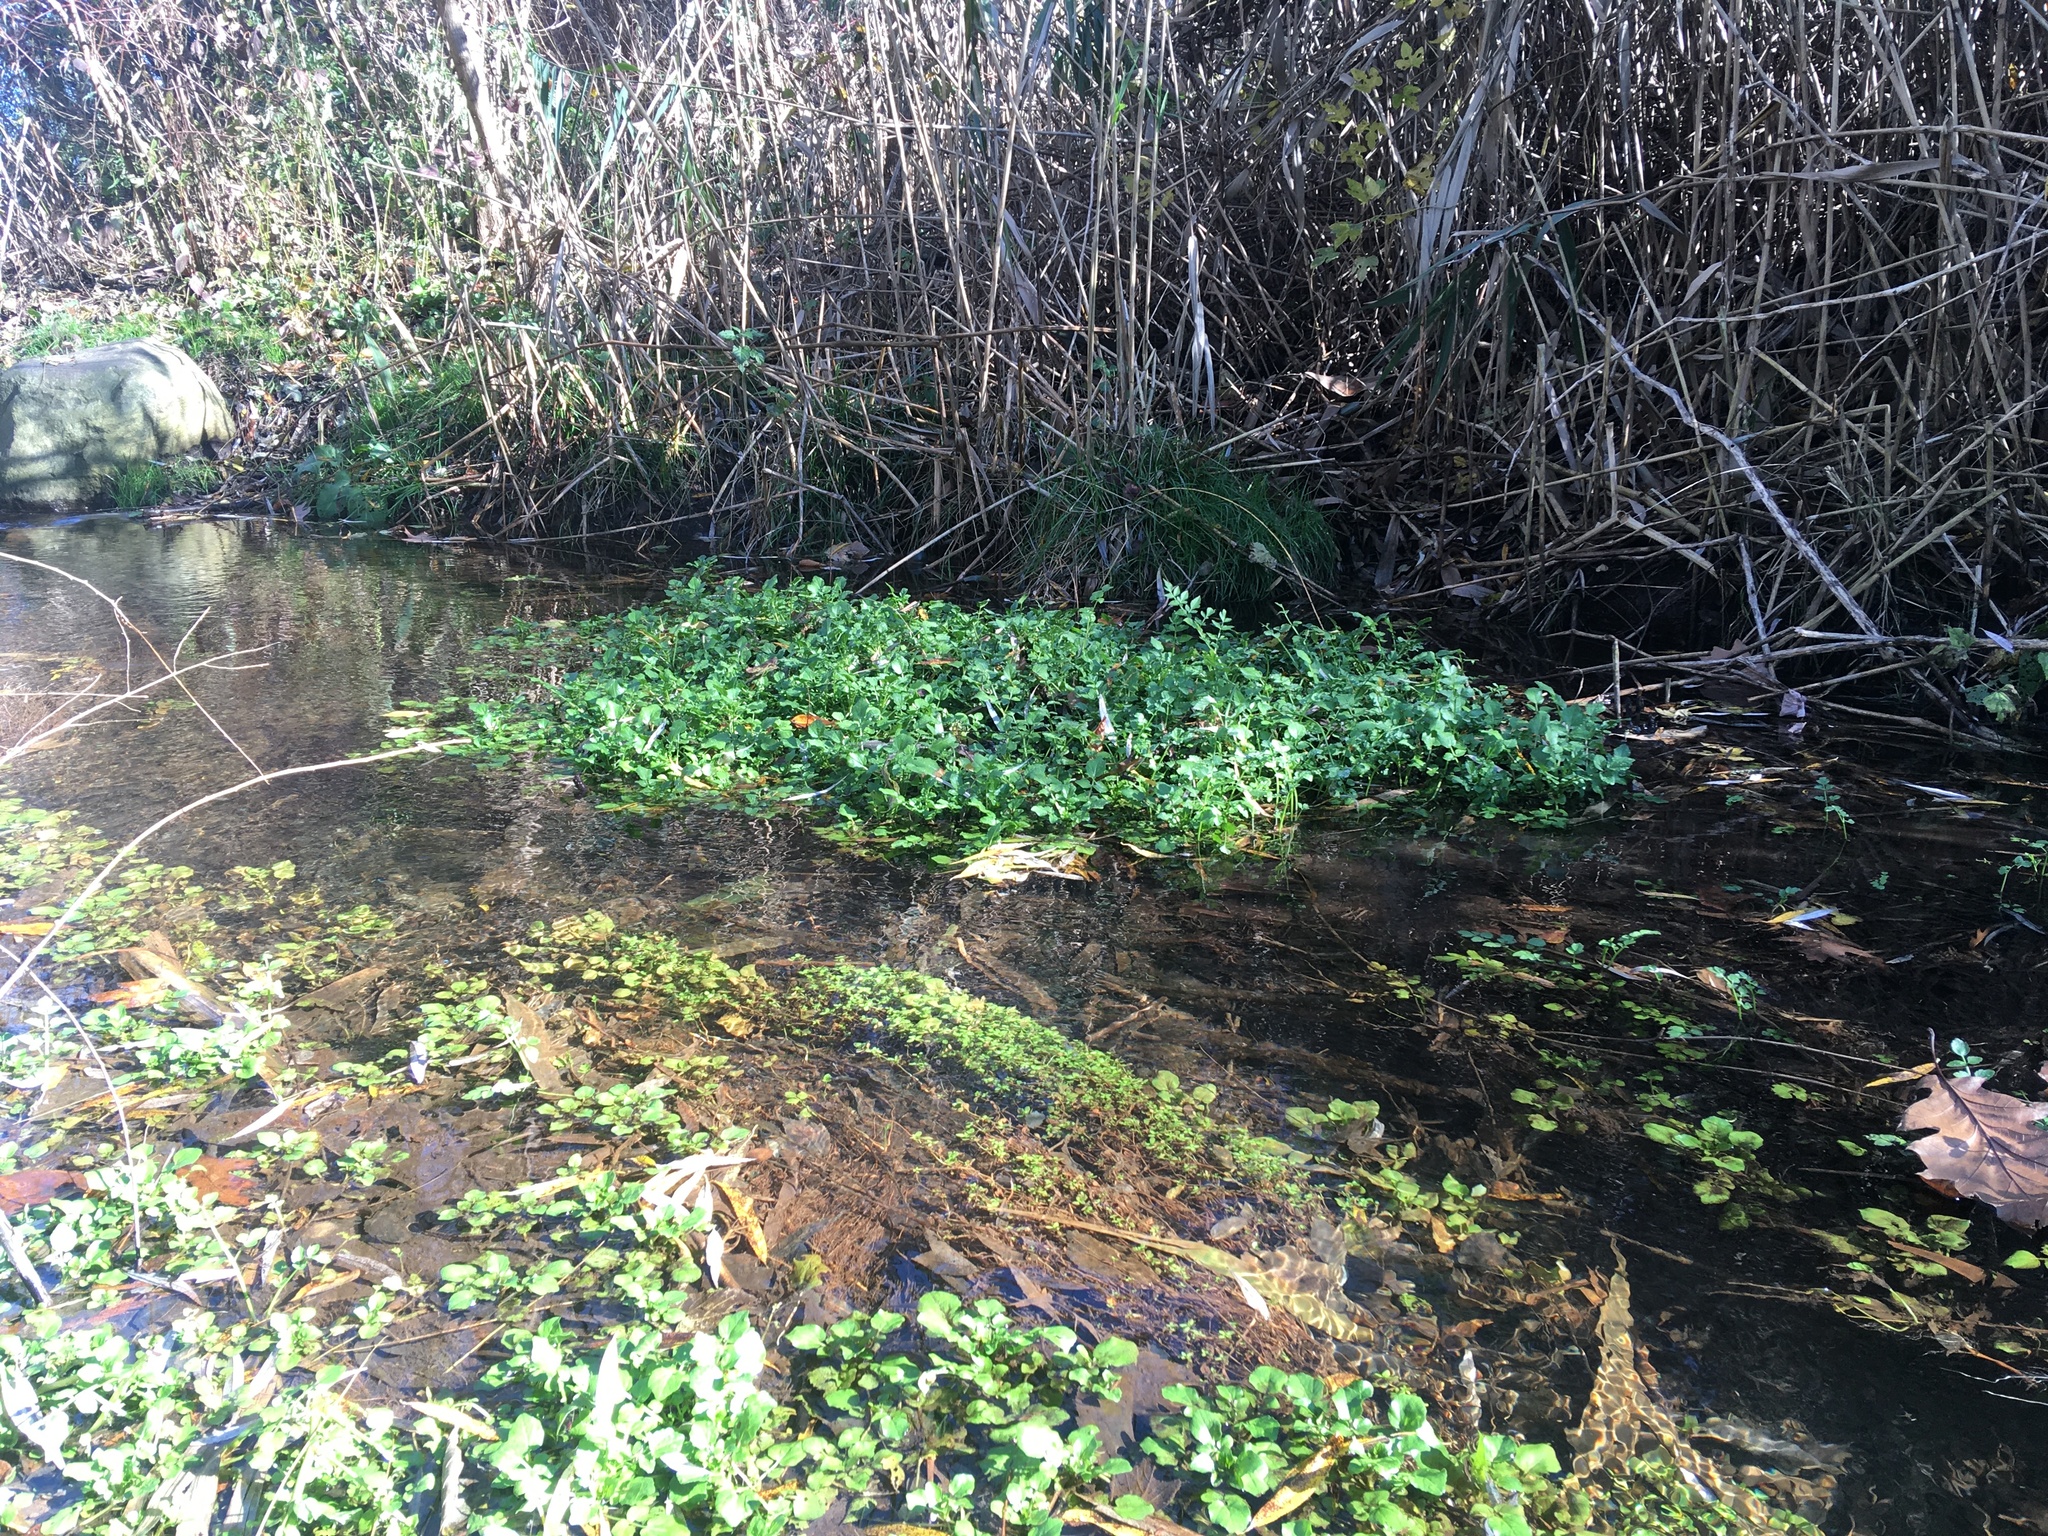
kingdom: Plantae
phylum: Tracheophyta
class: Magnoliopsida
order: Brassicales
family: Brassicaceae
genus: Nasturtium
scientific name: Nasturtium officinale
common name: Watercress
